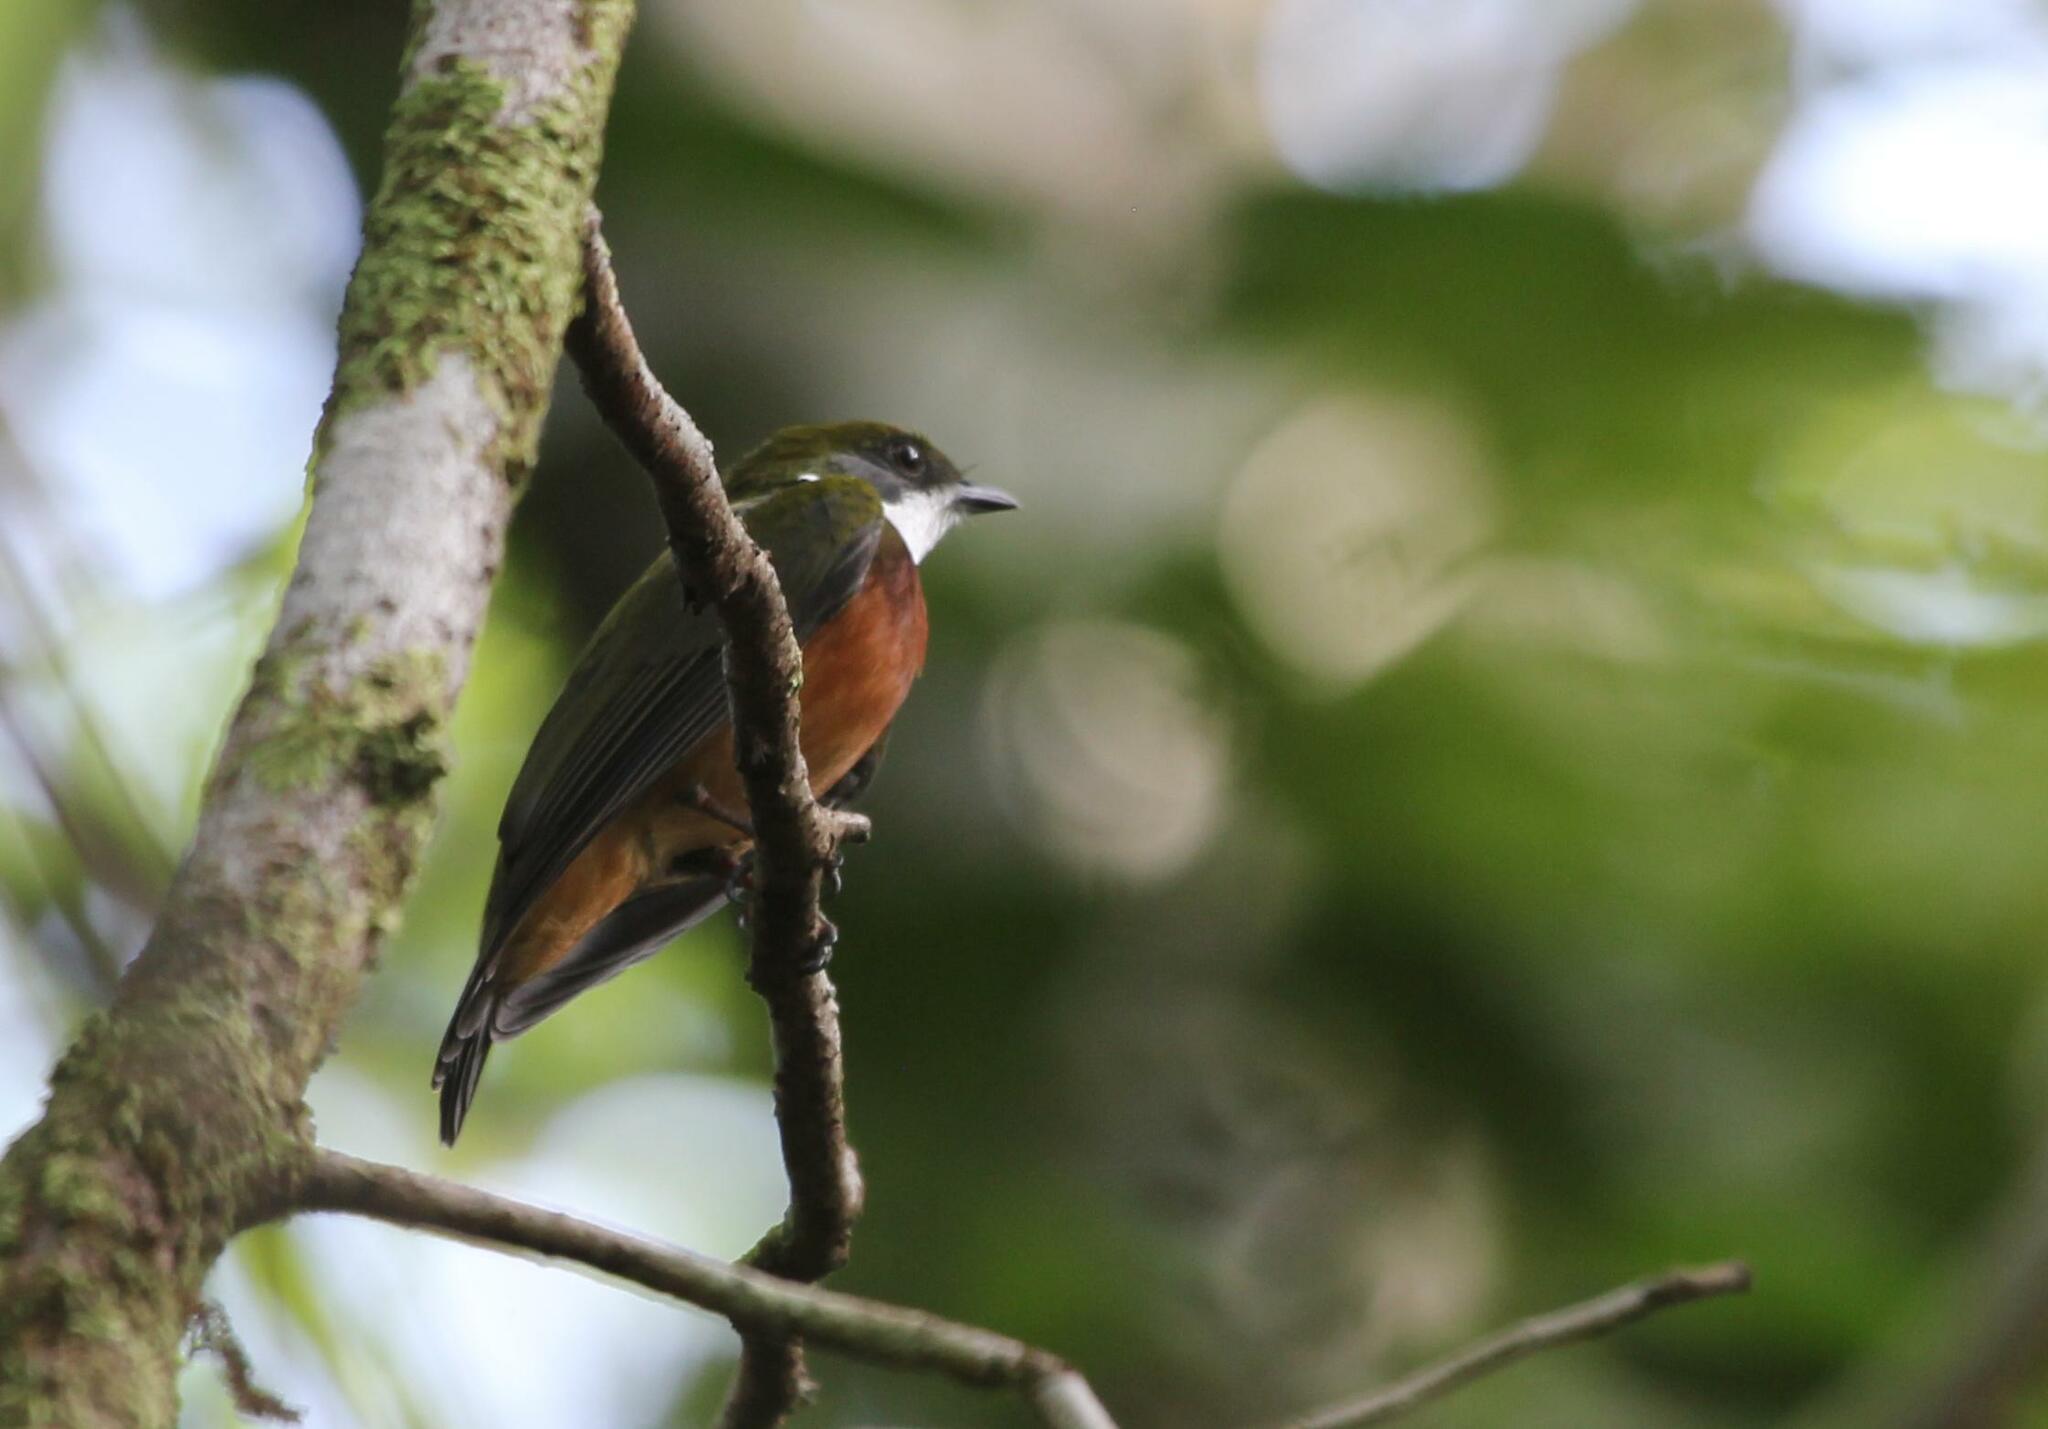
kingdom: Animalia
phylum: Chordata
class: Aves
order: Passeriformes
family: Pipridae
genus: Heterocercus
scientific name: Heterocercus flavivertex
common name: Yellow-crested manakin
